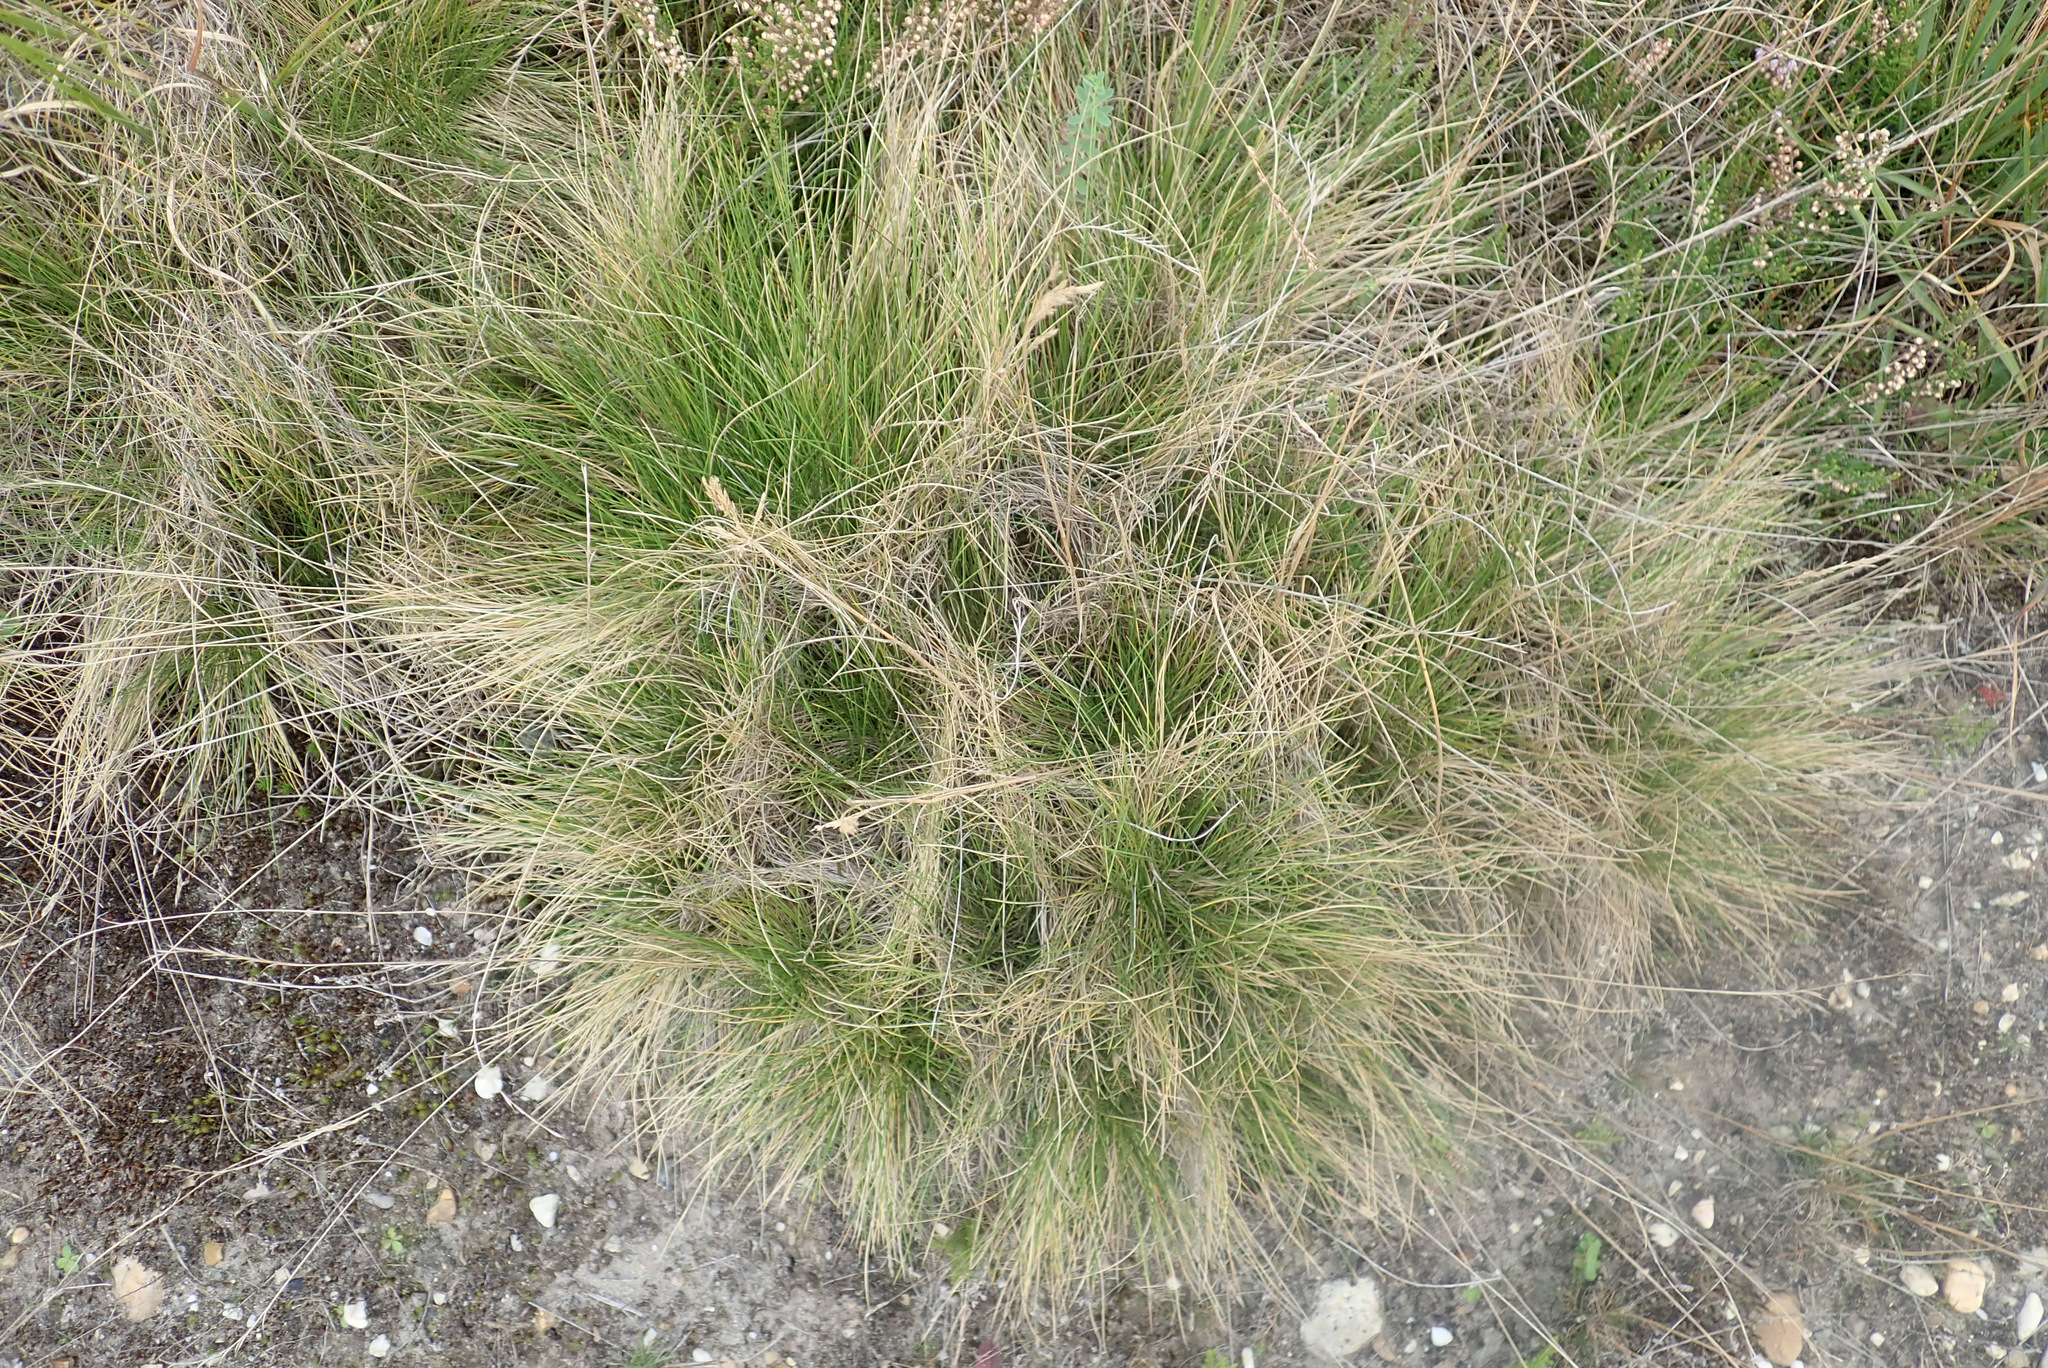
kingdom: Plantae
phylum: Tracheophyta
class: Liliopsida
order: Poales
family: Poaceae
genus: Nardus
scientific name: Nardus stricta
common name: Mat-grass
